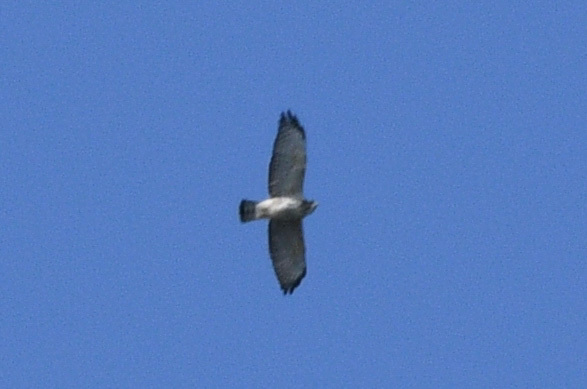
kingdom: Animalia
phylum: Chordata
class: Aves
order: Accipitriformes
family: Accipitridae
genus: Buteo
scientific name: Buteo platypterus
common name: Broad-winged hawk
